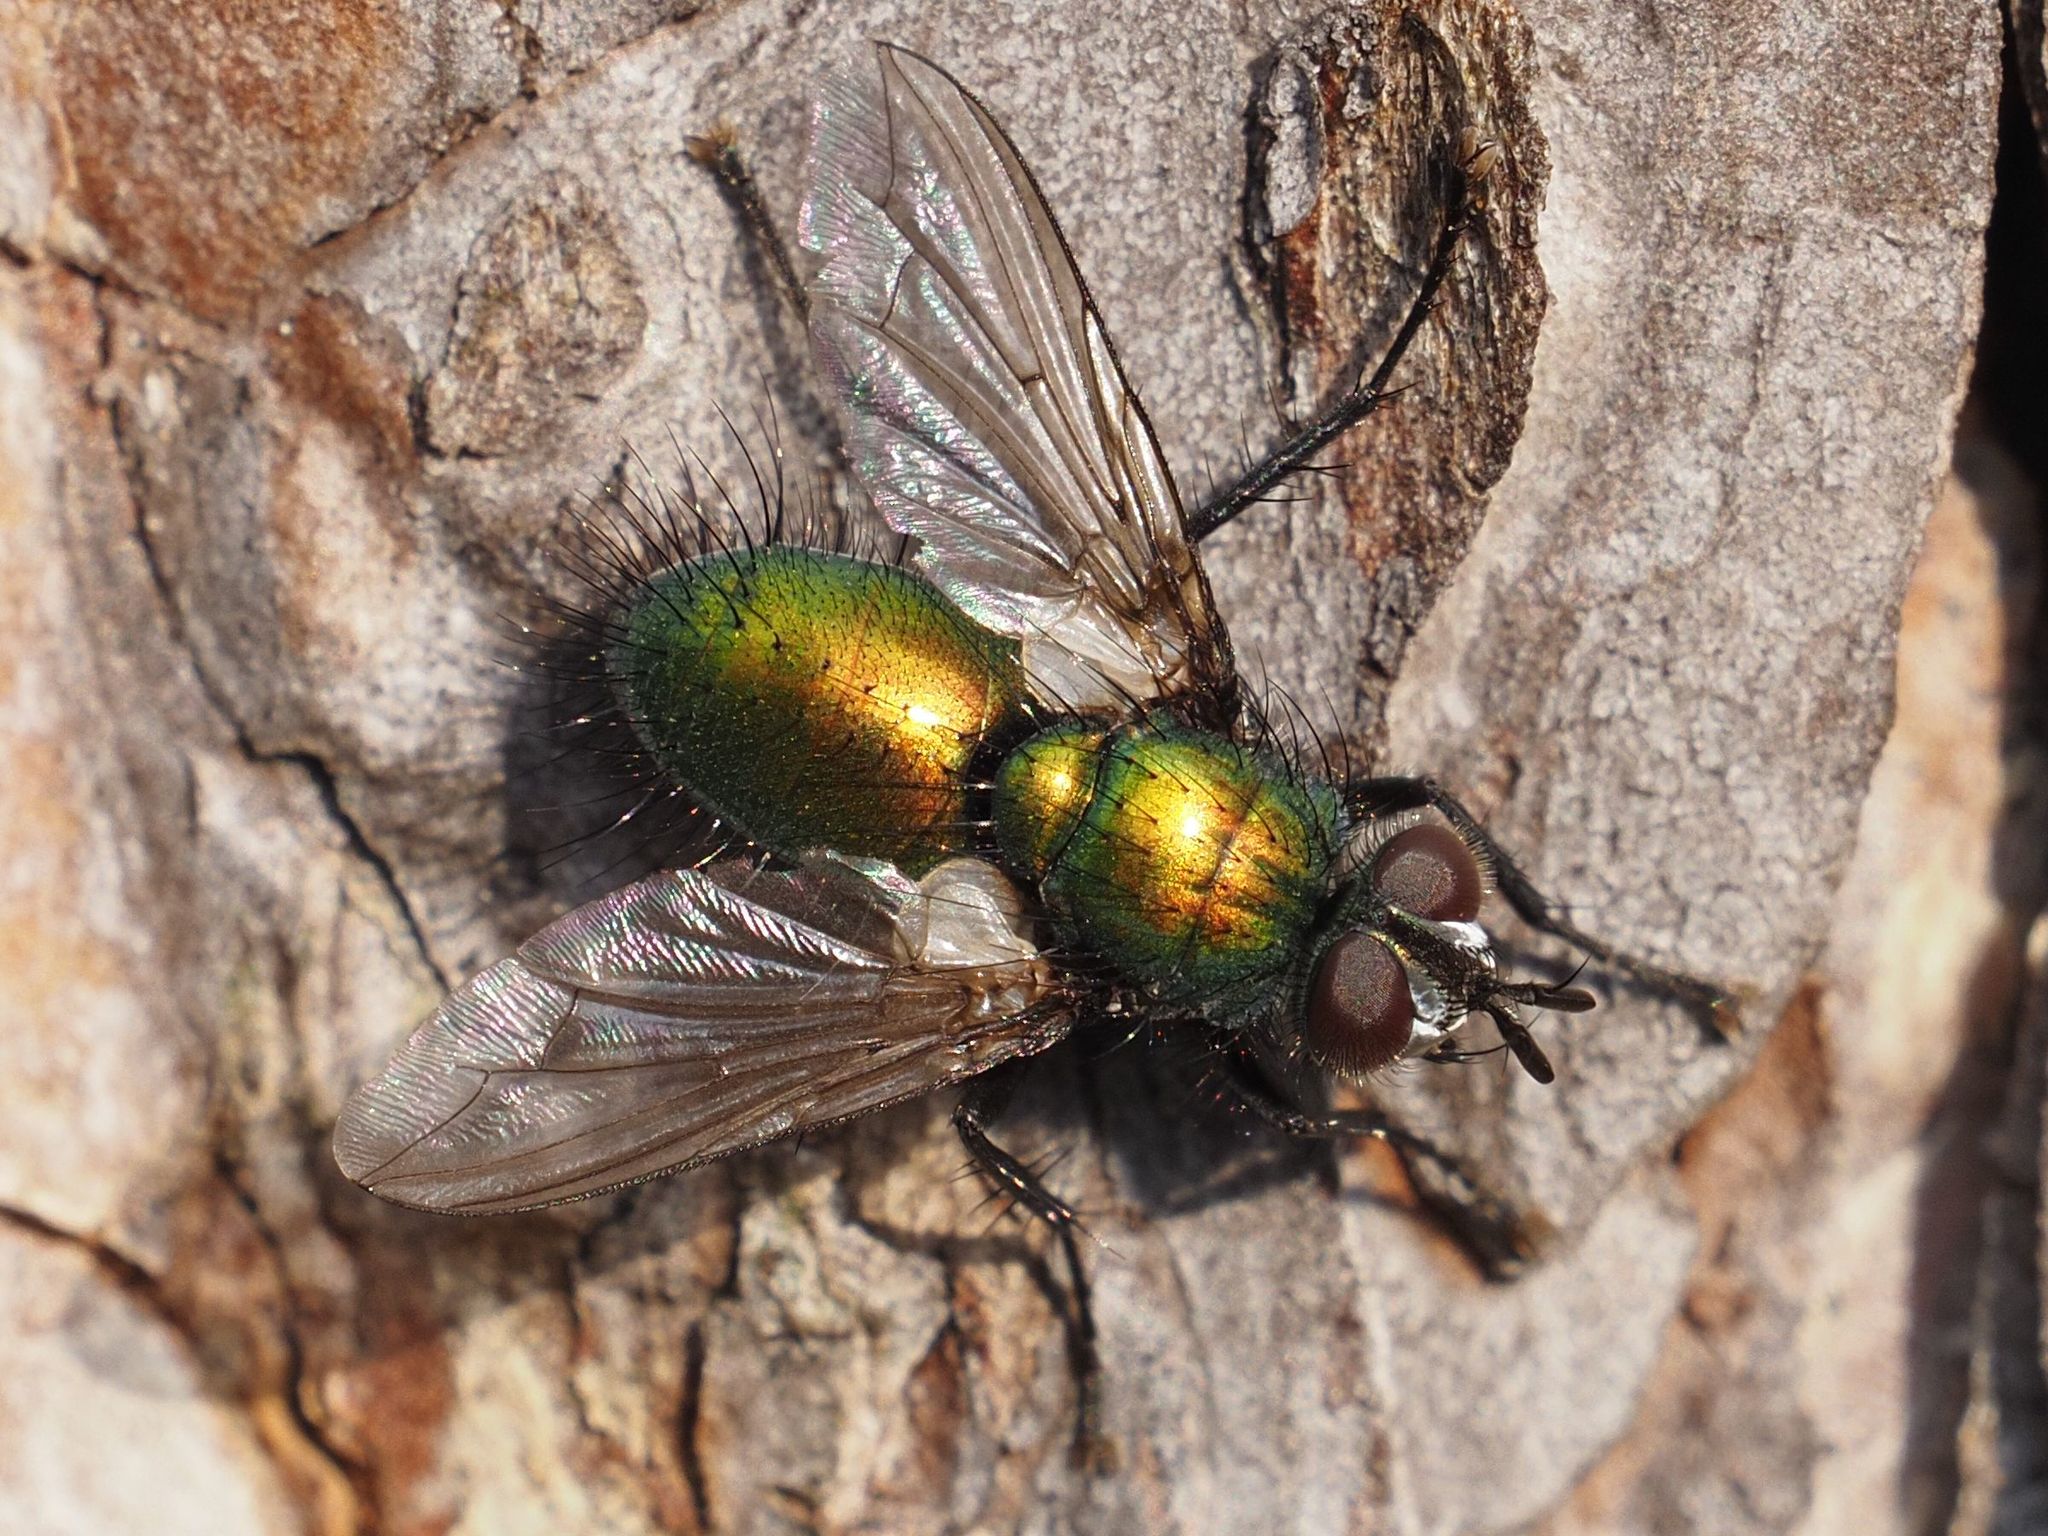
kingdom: Animalia
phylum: Arthropoda
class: Insecta
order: Diptera
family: Tachinidae
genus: Gymnocheta
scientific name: Gymnocheta viridis
